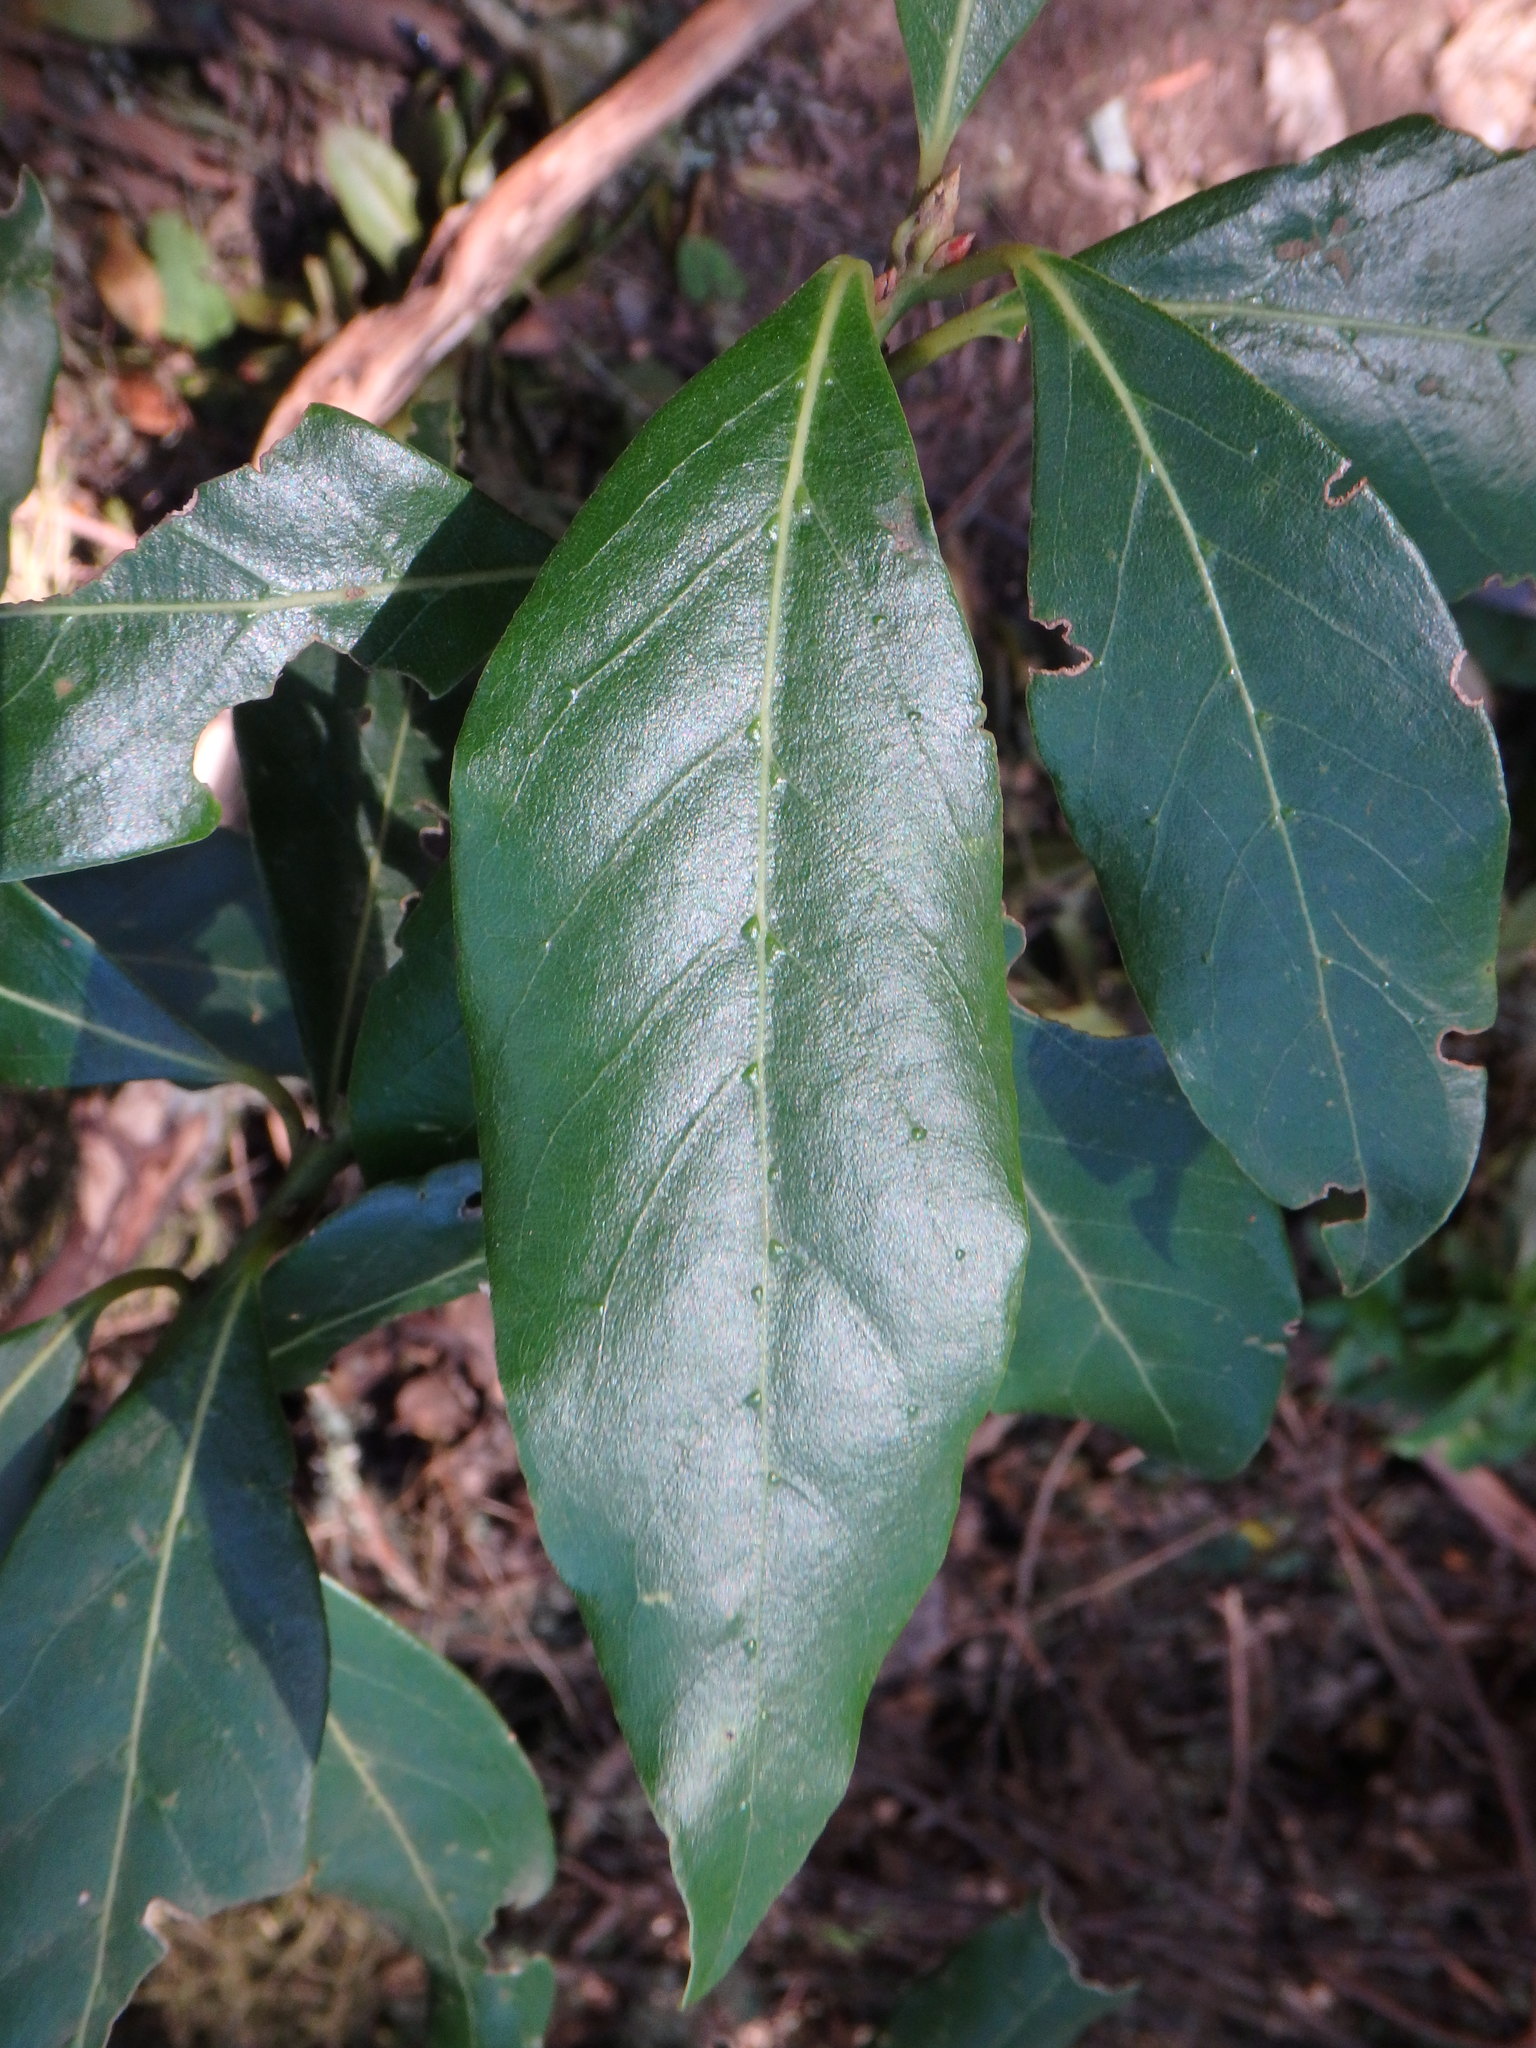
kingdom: Plantae
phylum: Tracheophyta
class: Magnoliopsida
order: Laurales
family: Lauraceae
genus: Laurus
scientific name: Laurus novocanariensis
